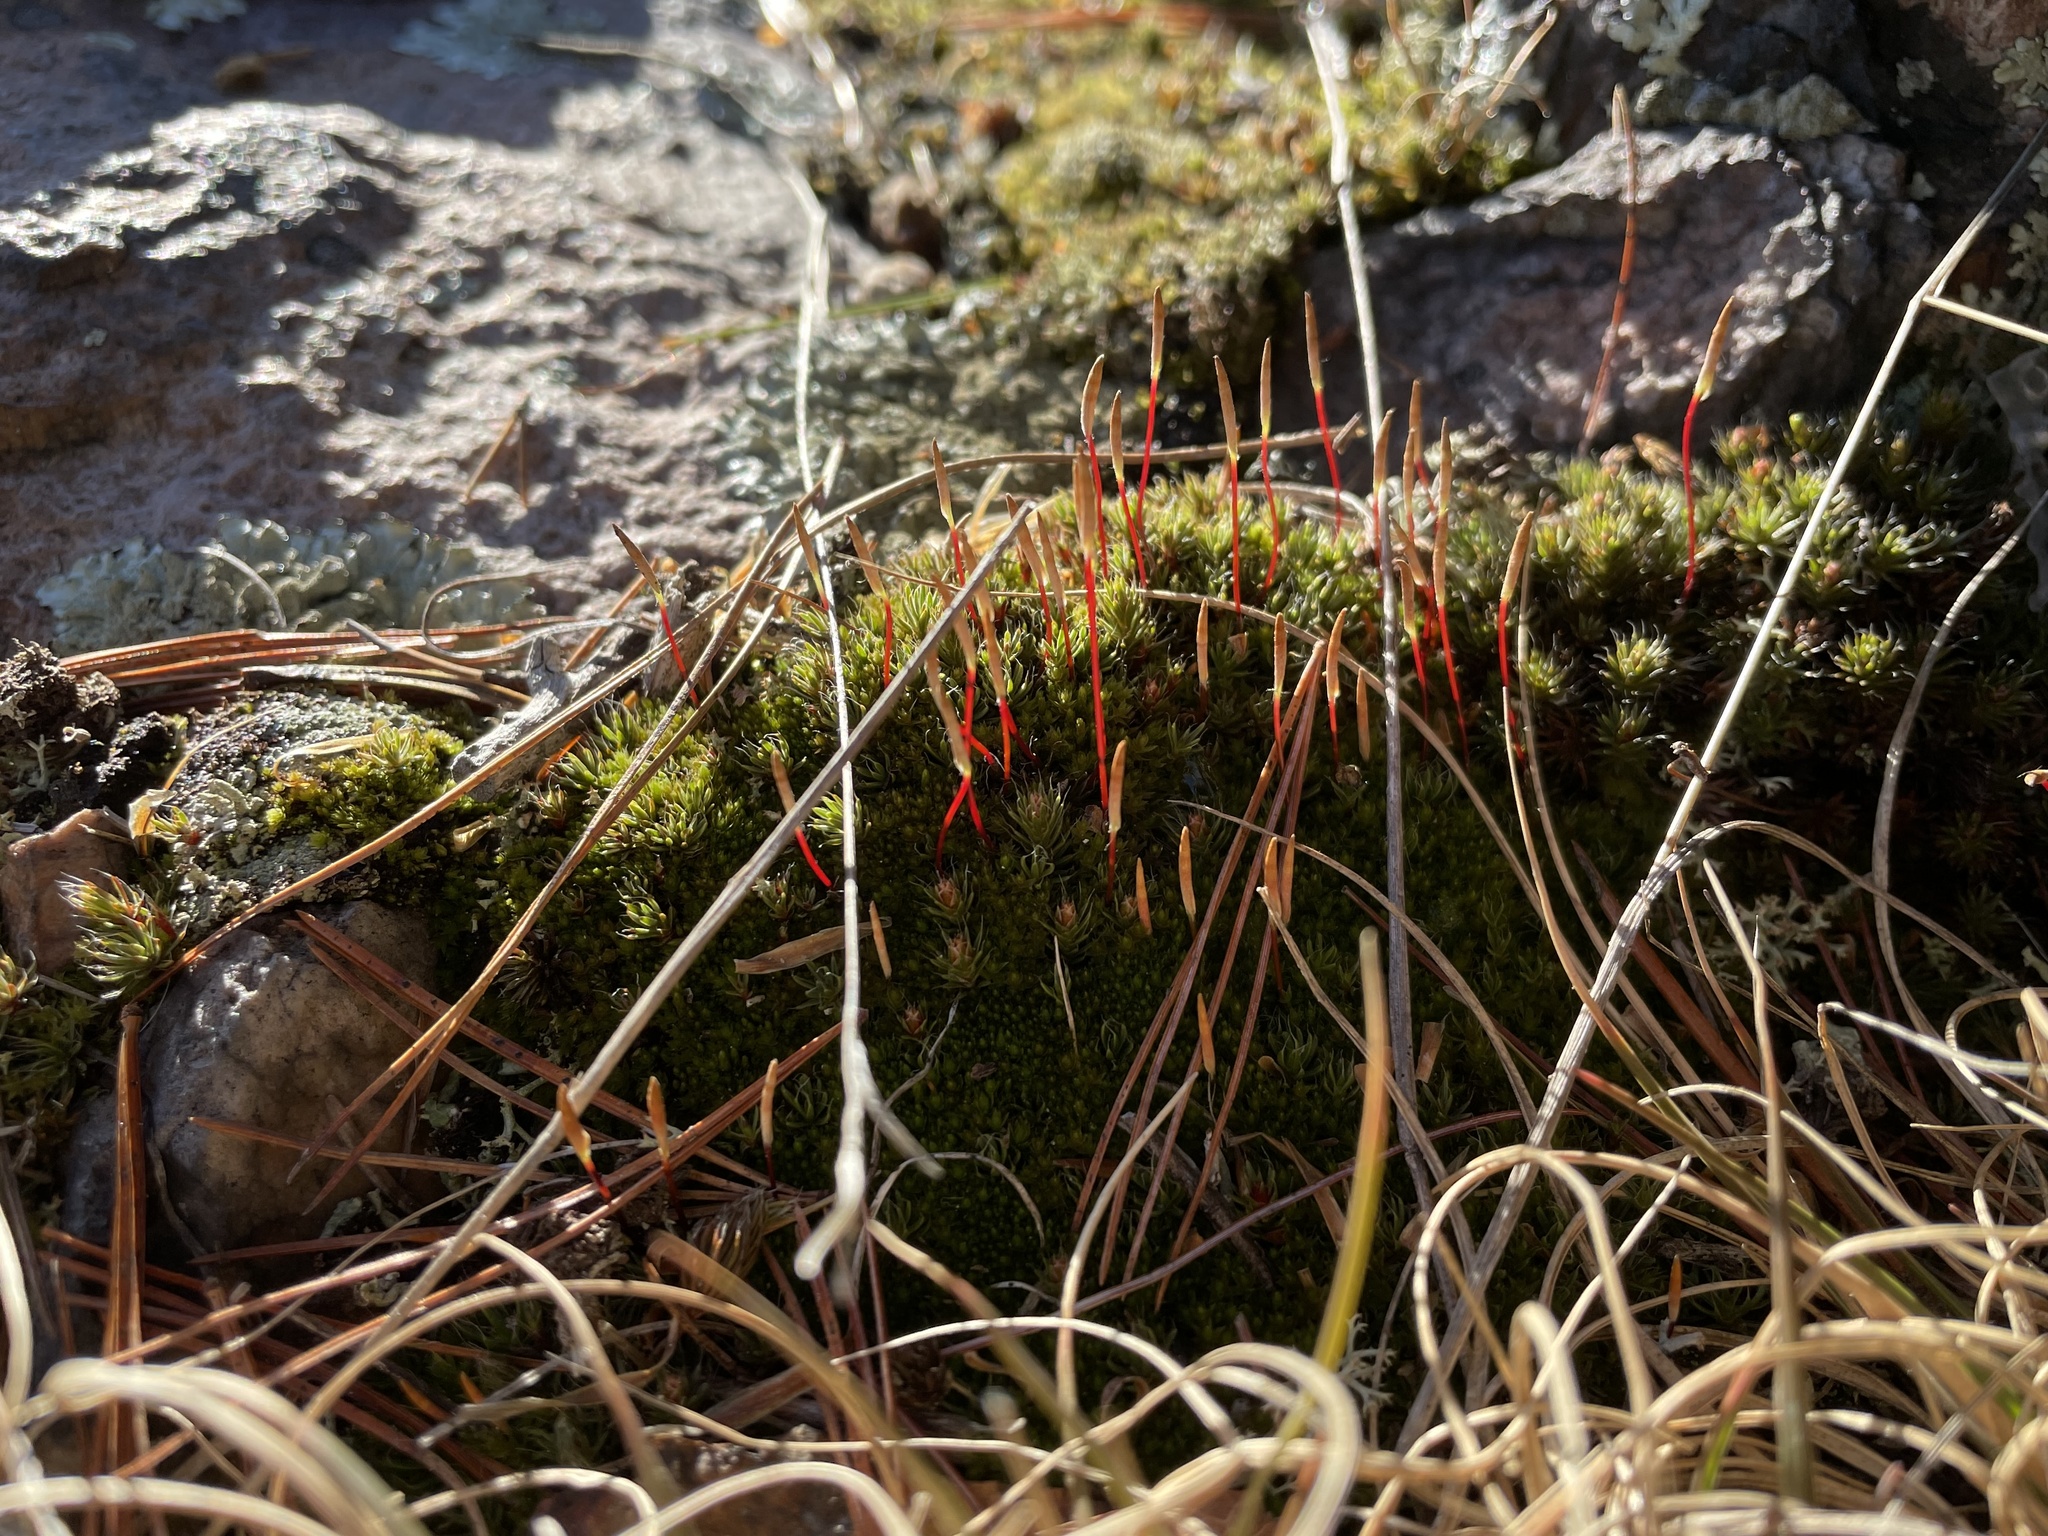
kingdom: Plantae
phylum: Bryophyta
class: Polytrichopsida
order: Polytrichales
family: Polytrichaceae
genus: Polytrichum
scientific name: Polytrichum piliferum
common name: Bristly haircap
